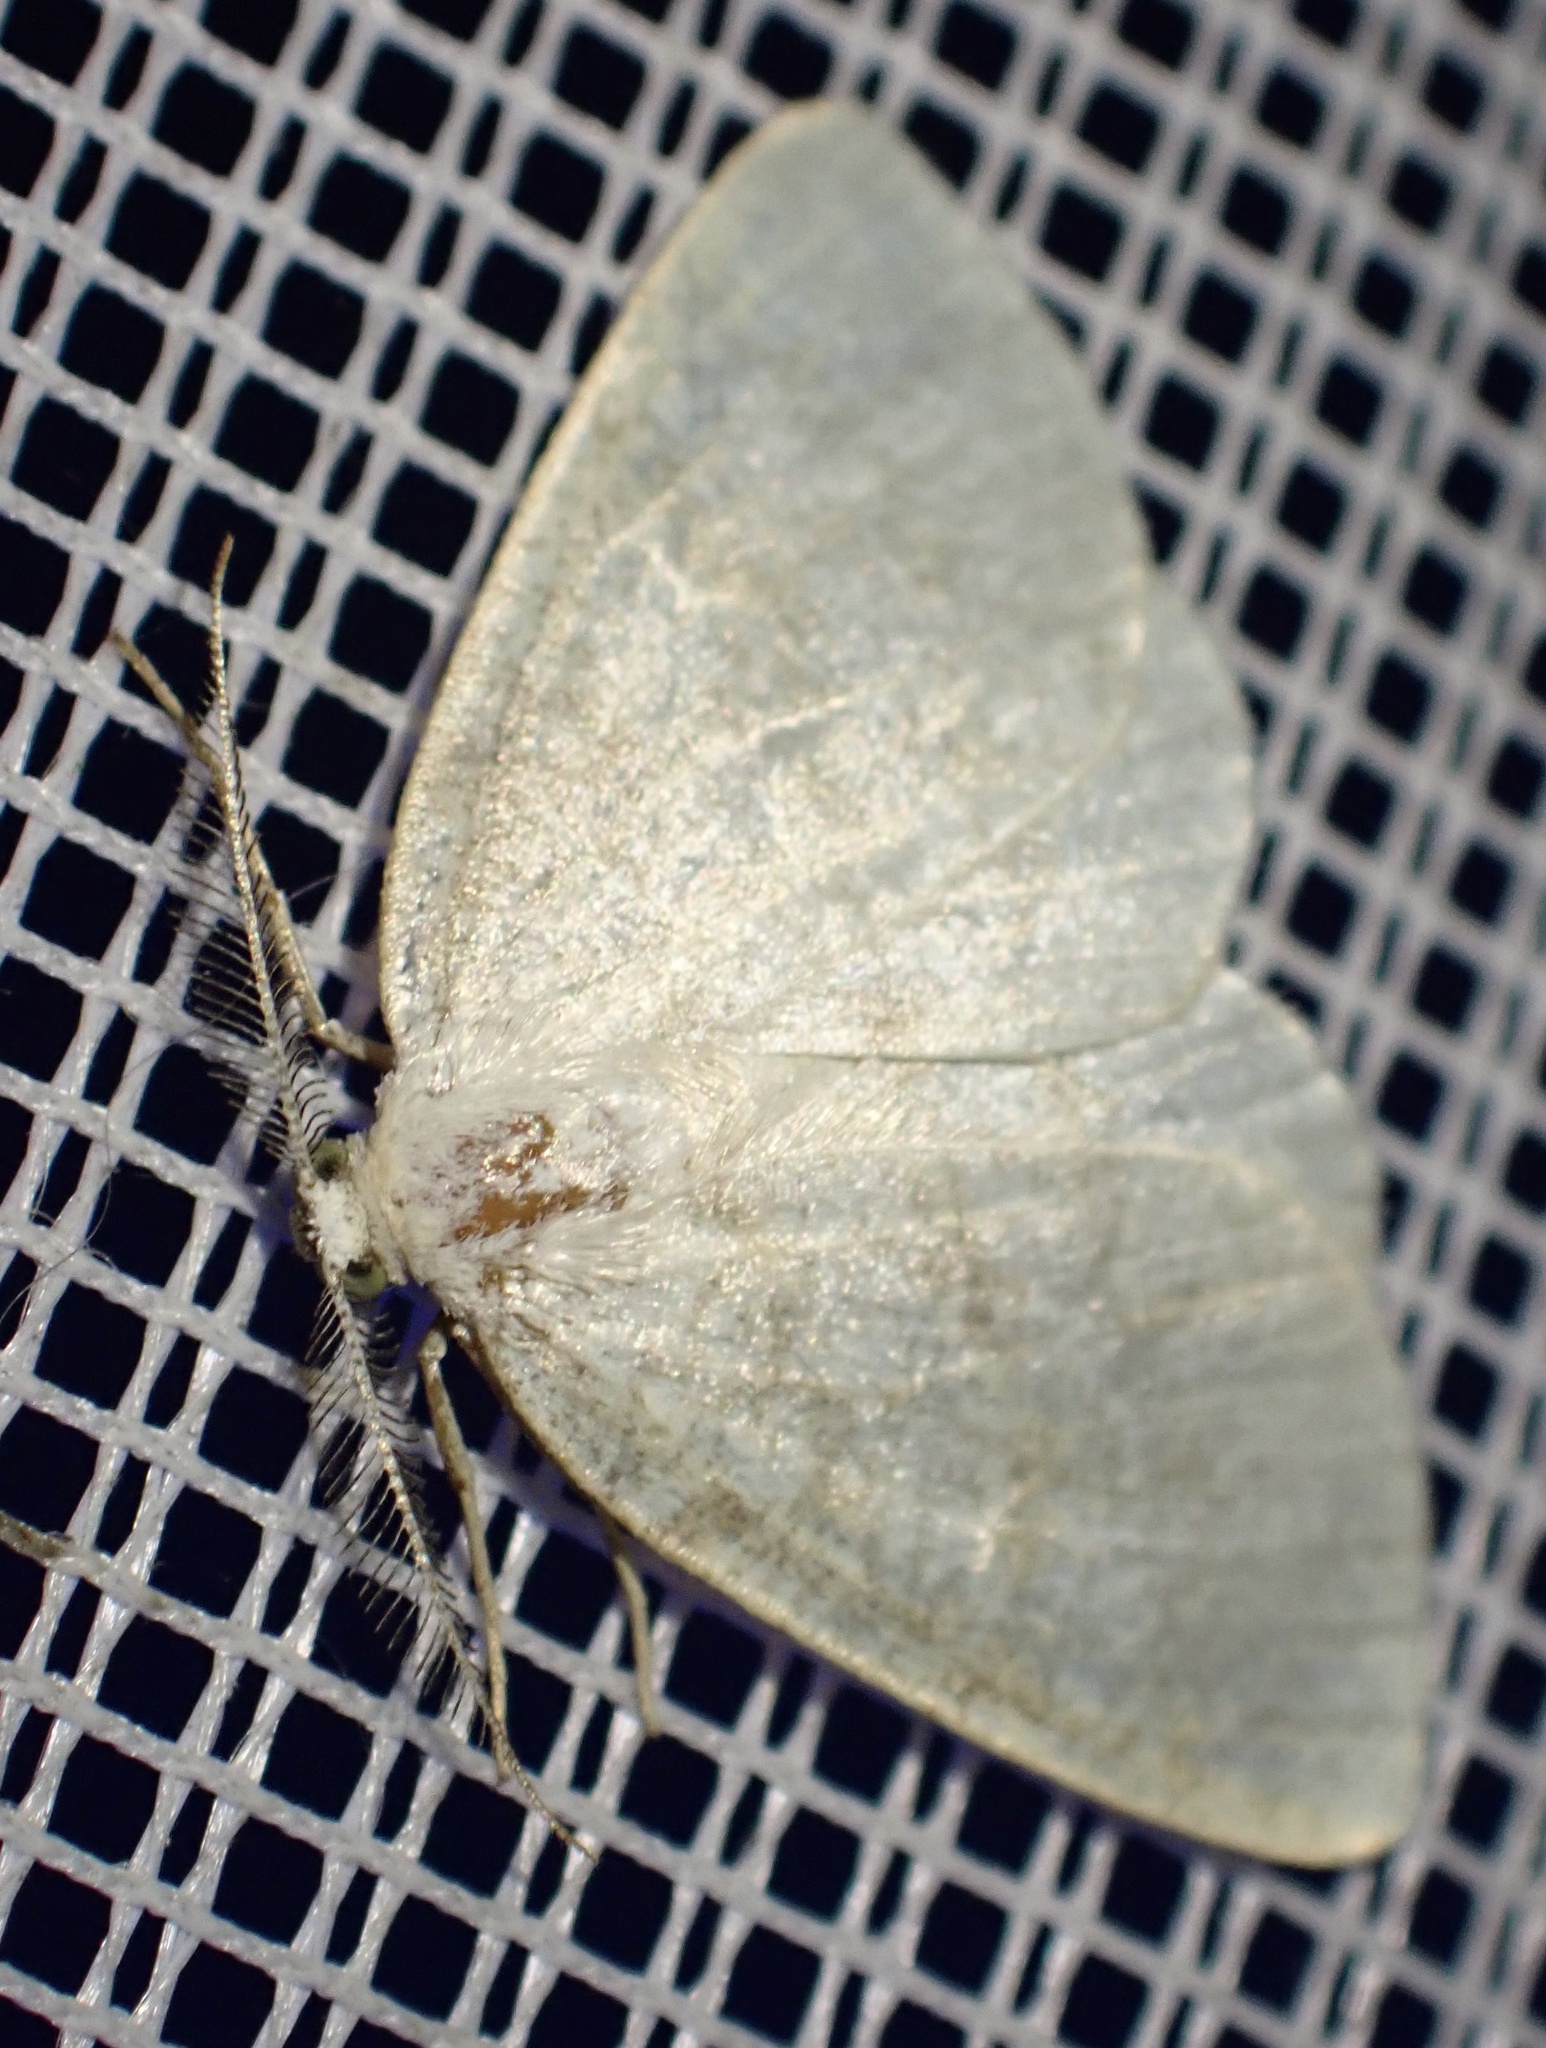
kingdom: Animalia
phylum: Arthropoda
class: Insecta
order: Lepidoptera
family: Geometridae
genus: Cabera
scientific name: Cabera exanthemata
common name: Common wave
